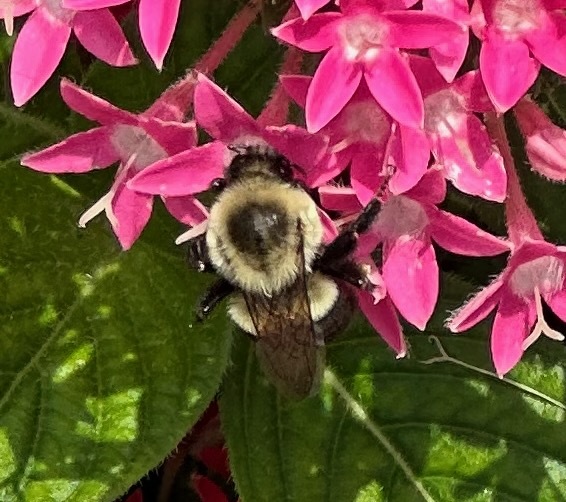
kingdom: Animalia
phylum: Arthropoda
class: Insecta
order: Hymenoptera
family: Apidae
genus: Bombus
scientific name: Bombus impatiens
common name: Common eastern bumble bee
